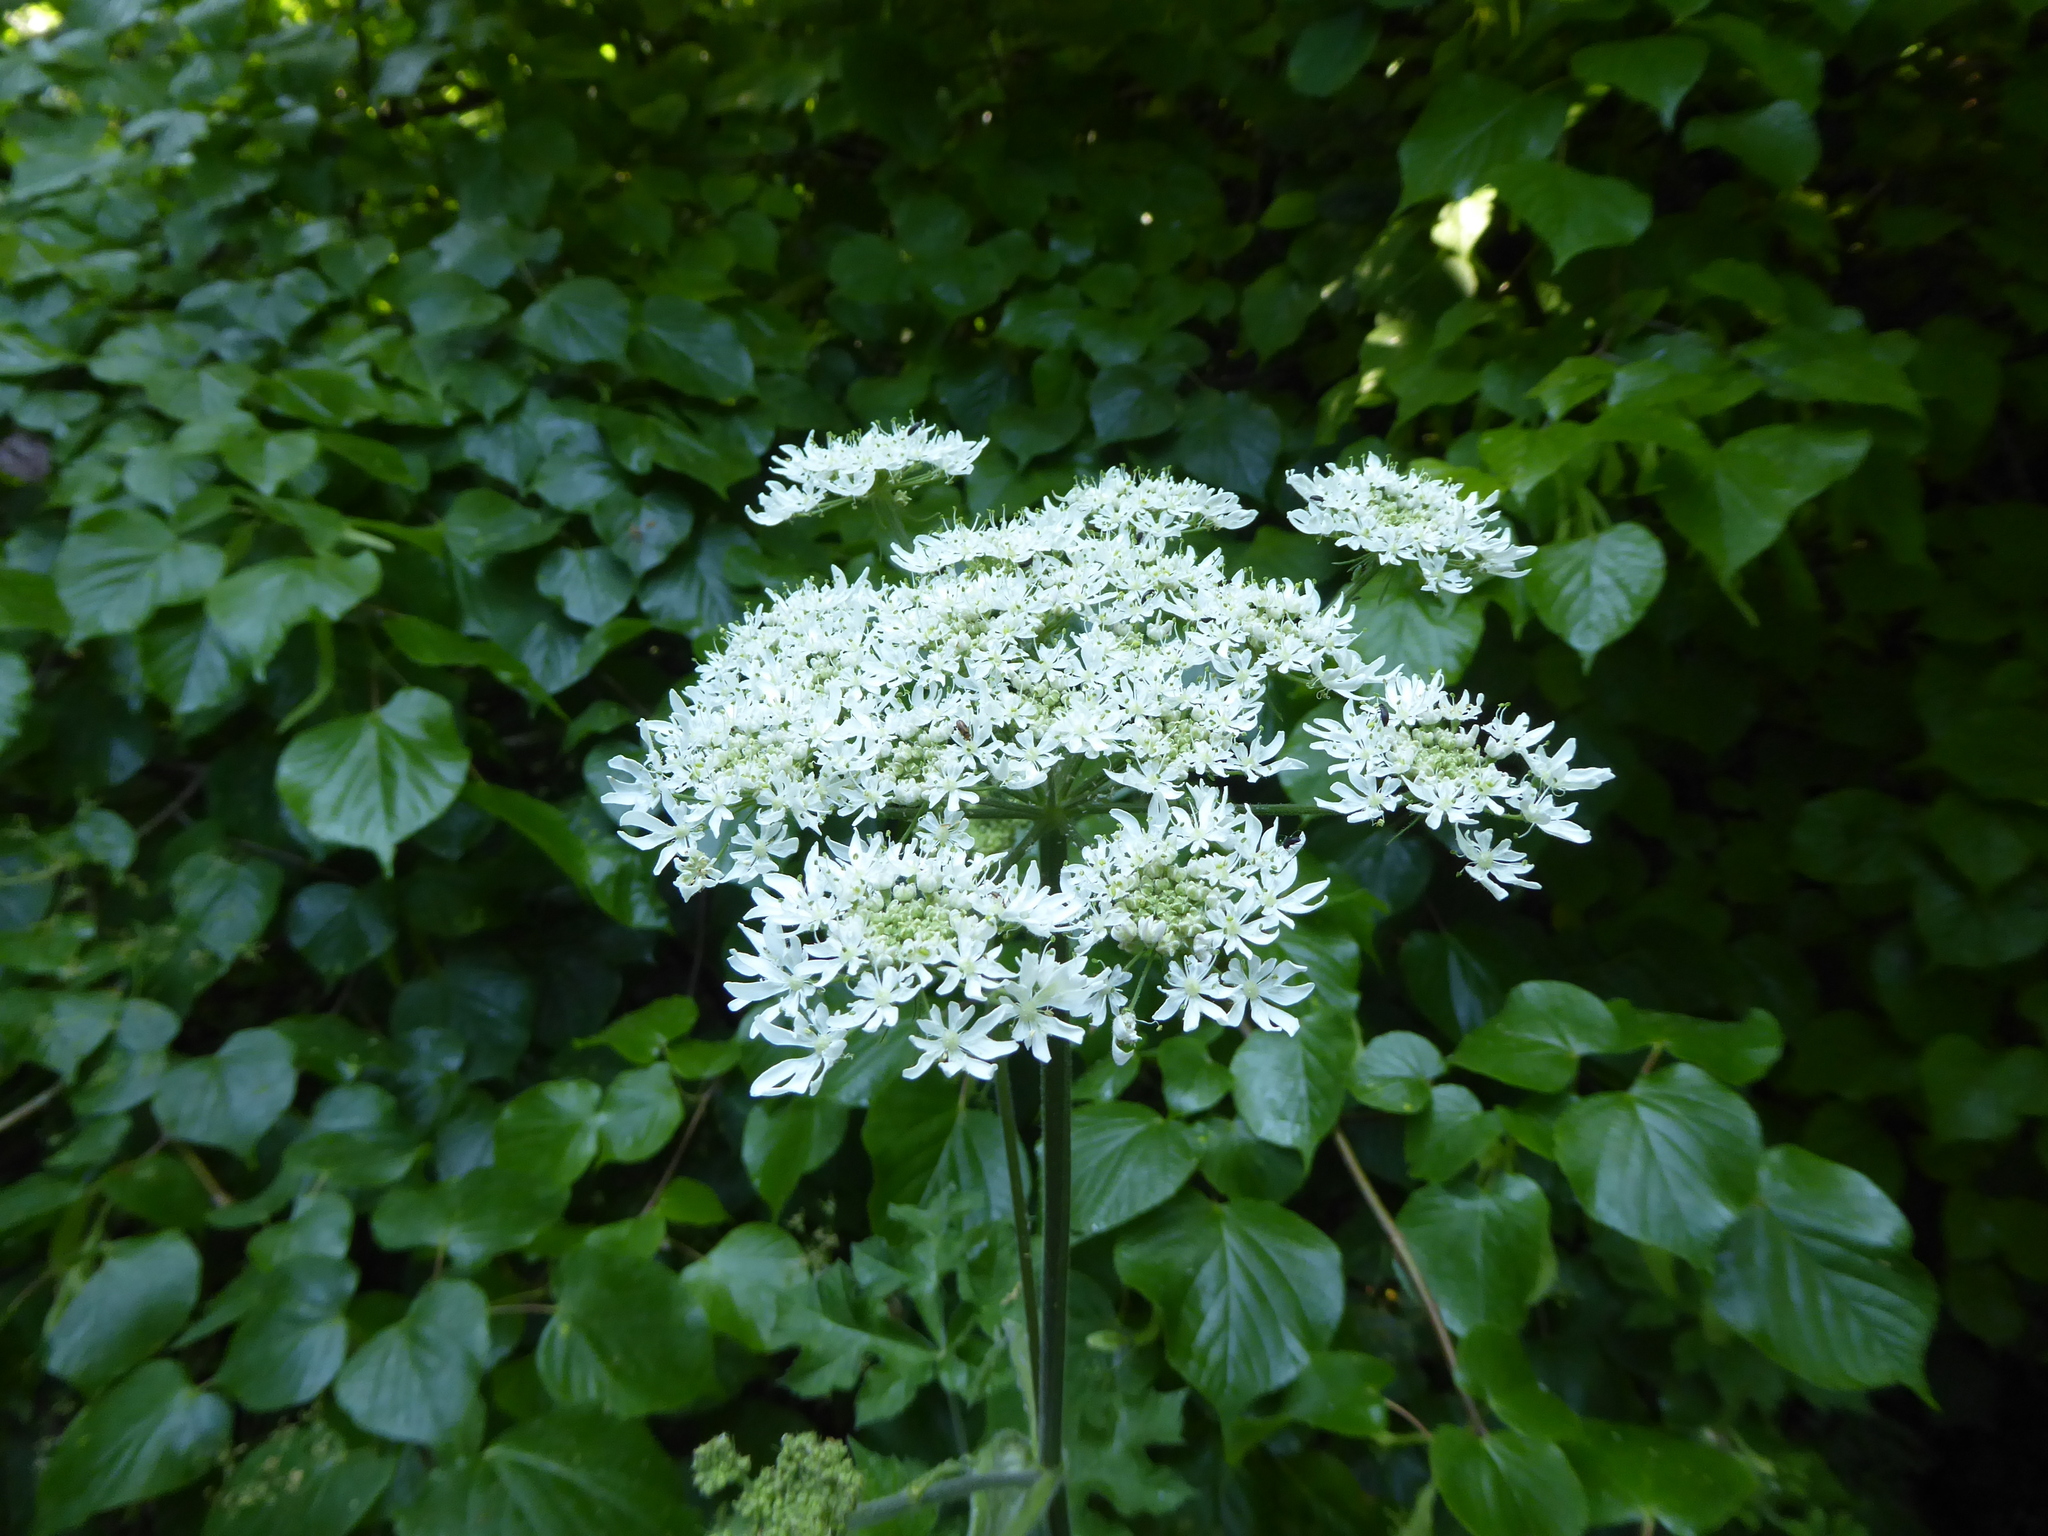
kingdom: Plantae
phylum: Tracheophyta
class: Magnoliopsida
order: Apiales
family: Apiaceae
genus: Heracleum
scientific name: Heracleum sphondylium
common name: Hogweed
